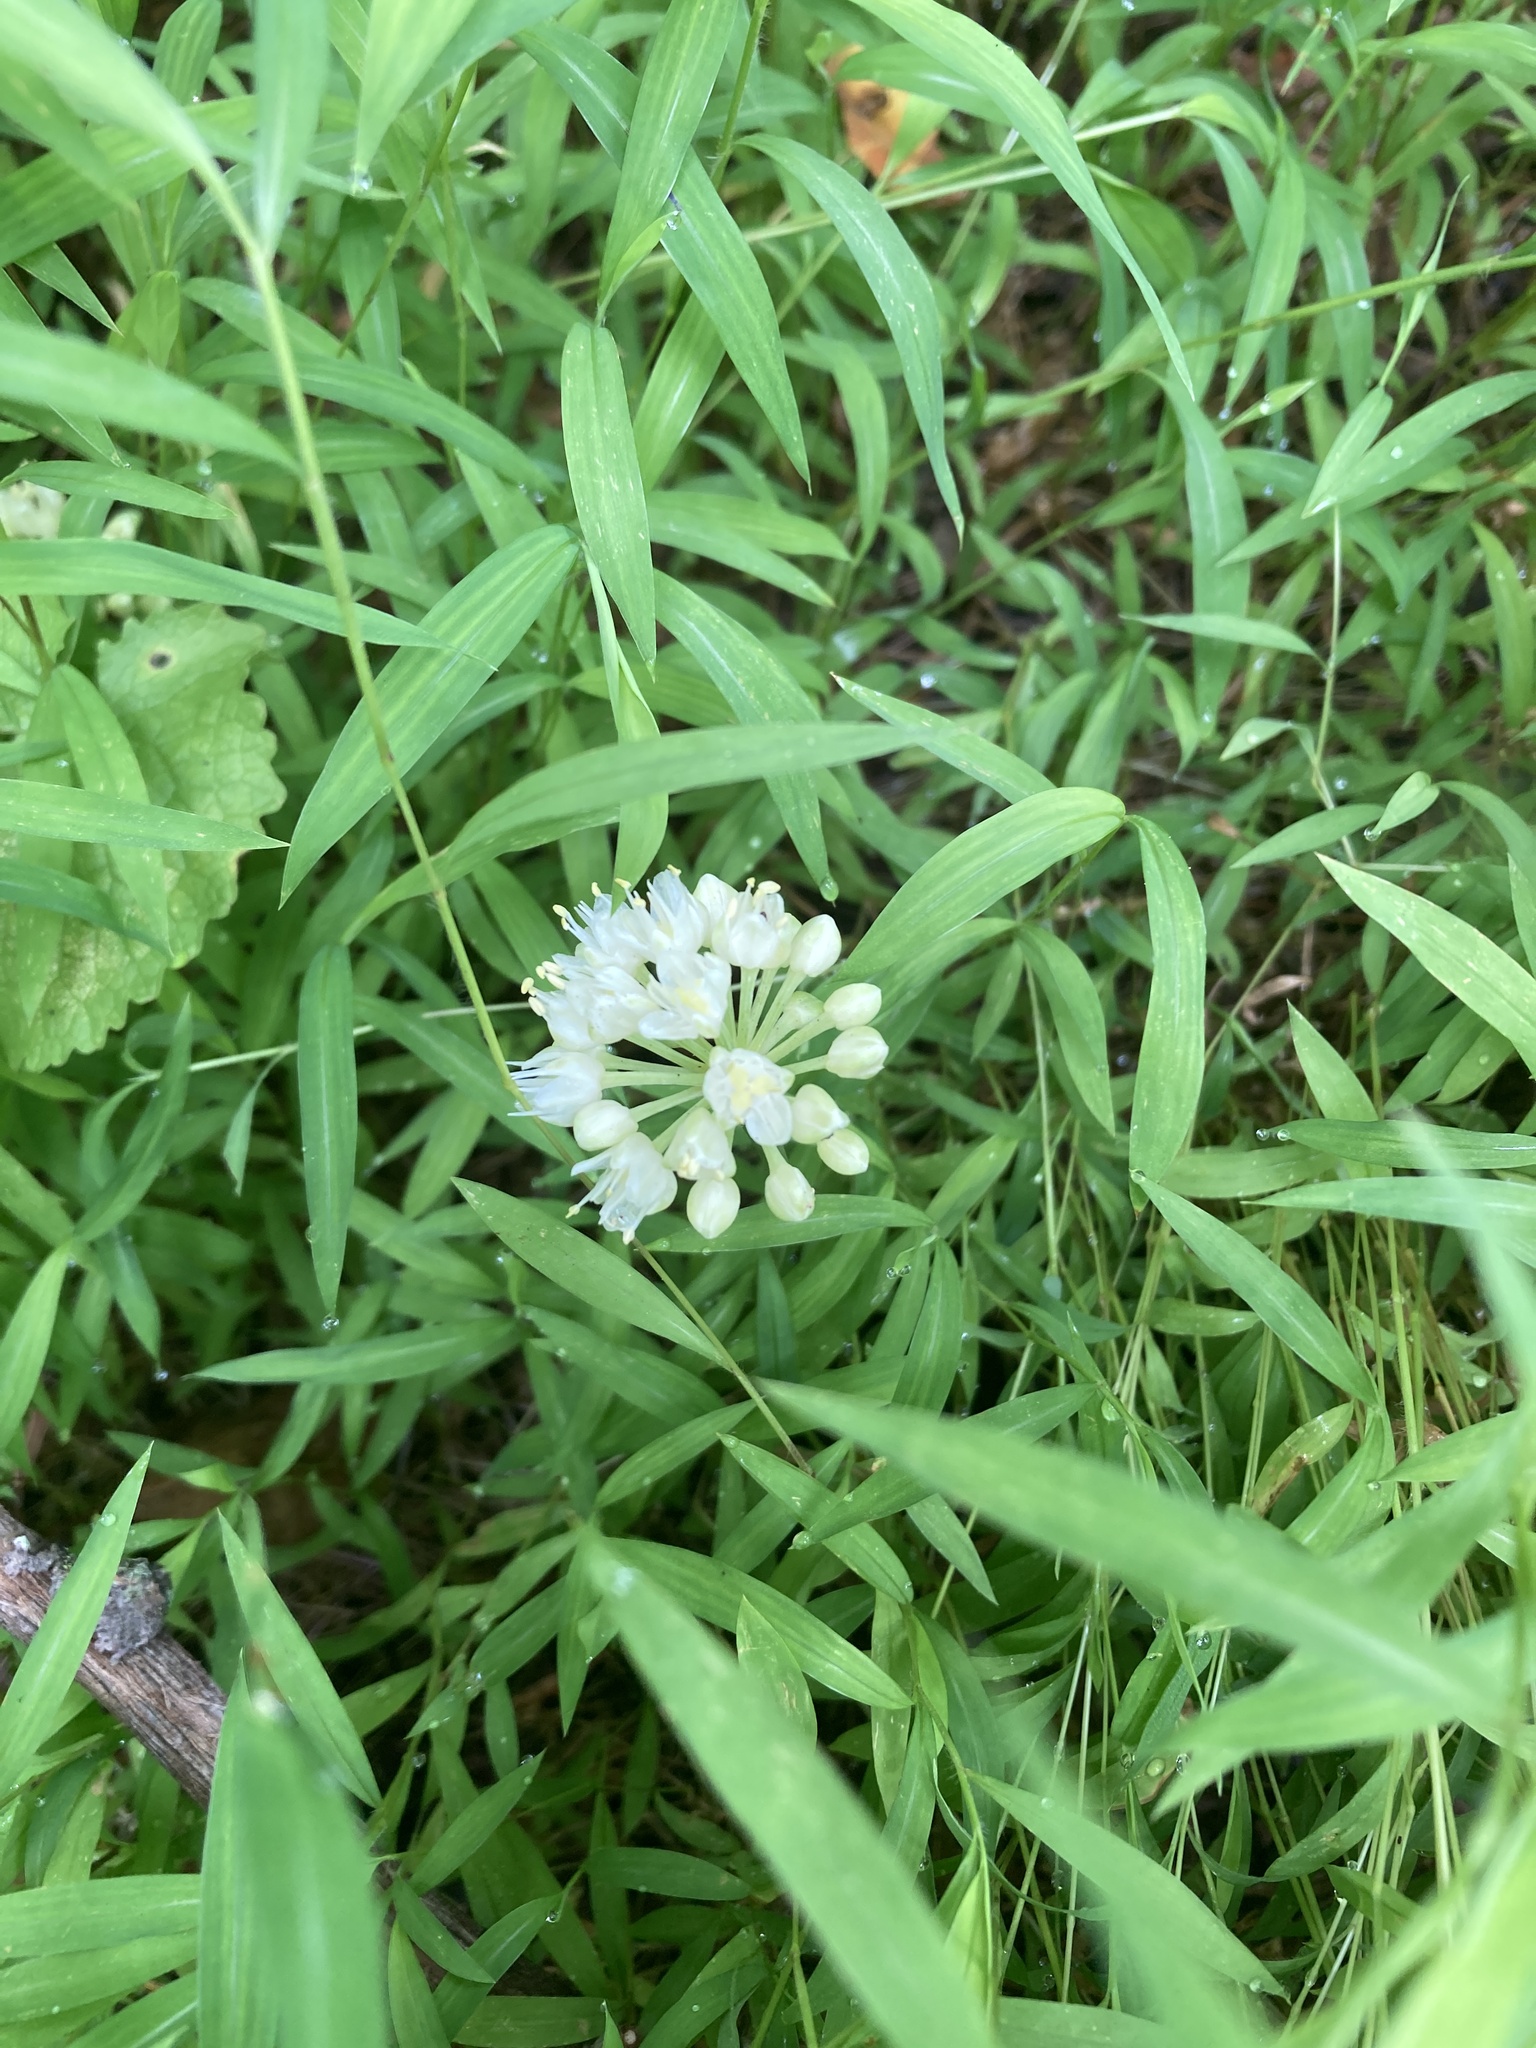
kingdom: Plantae
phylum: Tracheophyta
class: Liliopsida
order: Asparagales
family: Amaryllidaceae
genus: Allium
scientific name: Allium tricoccum
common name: Ramp
